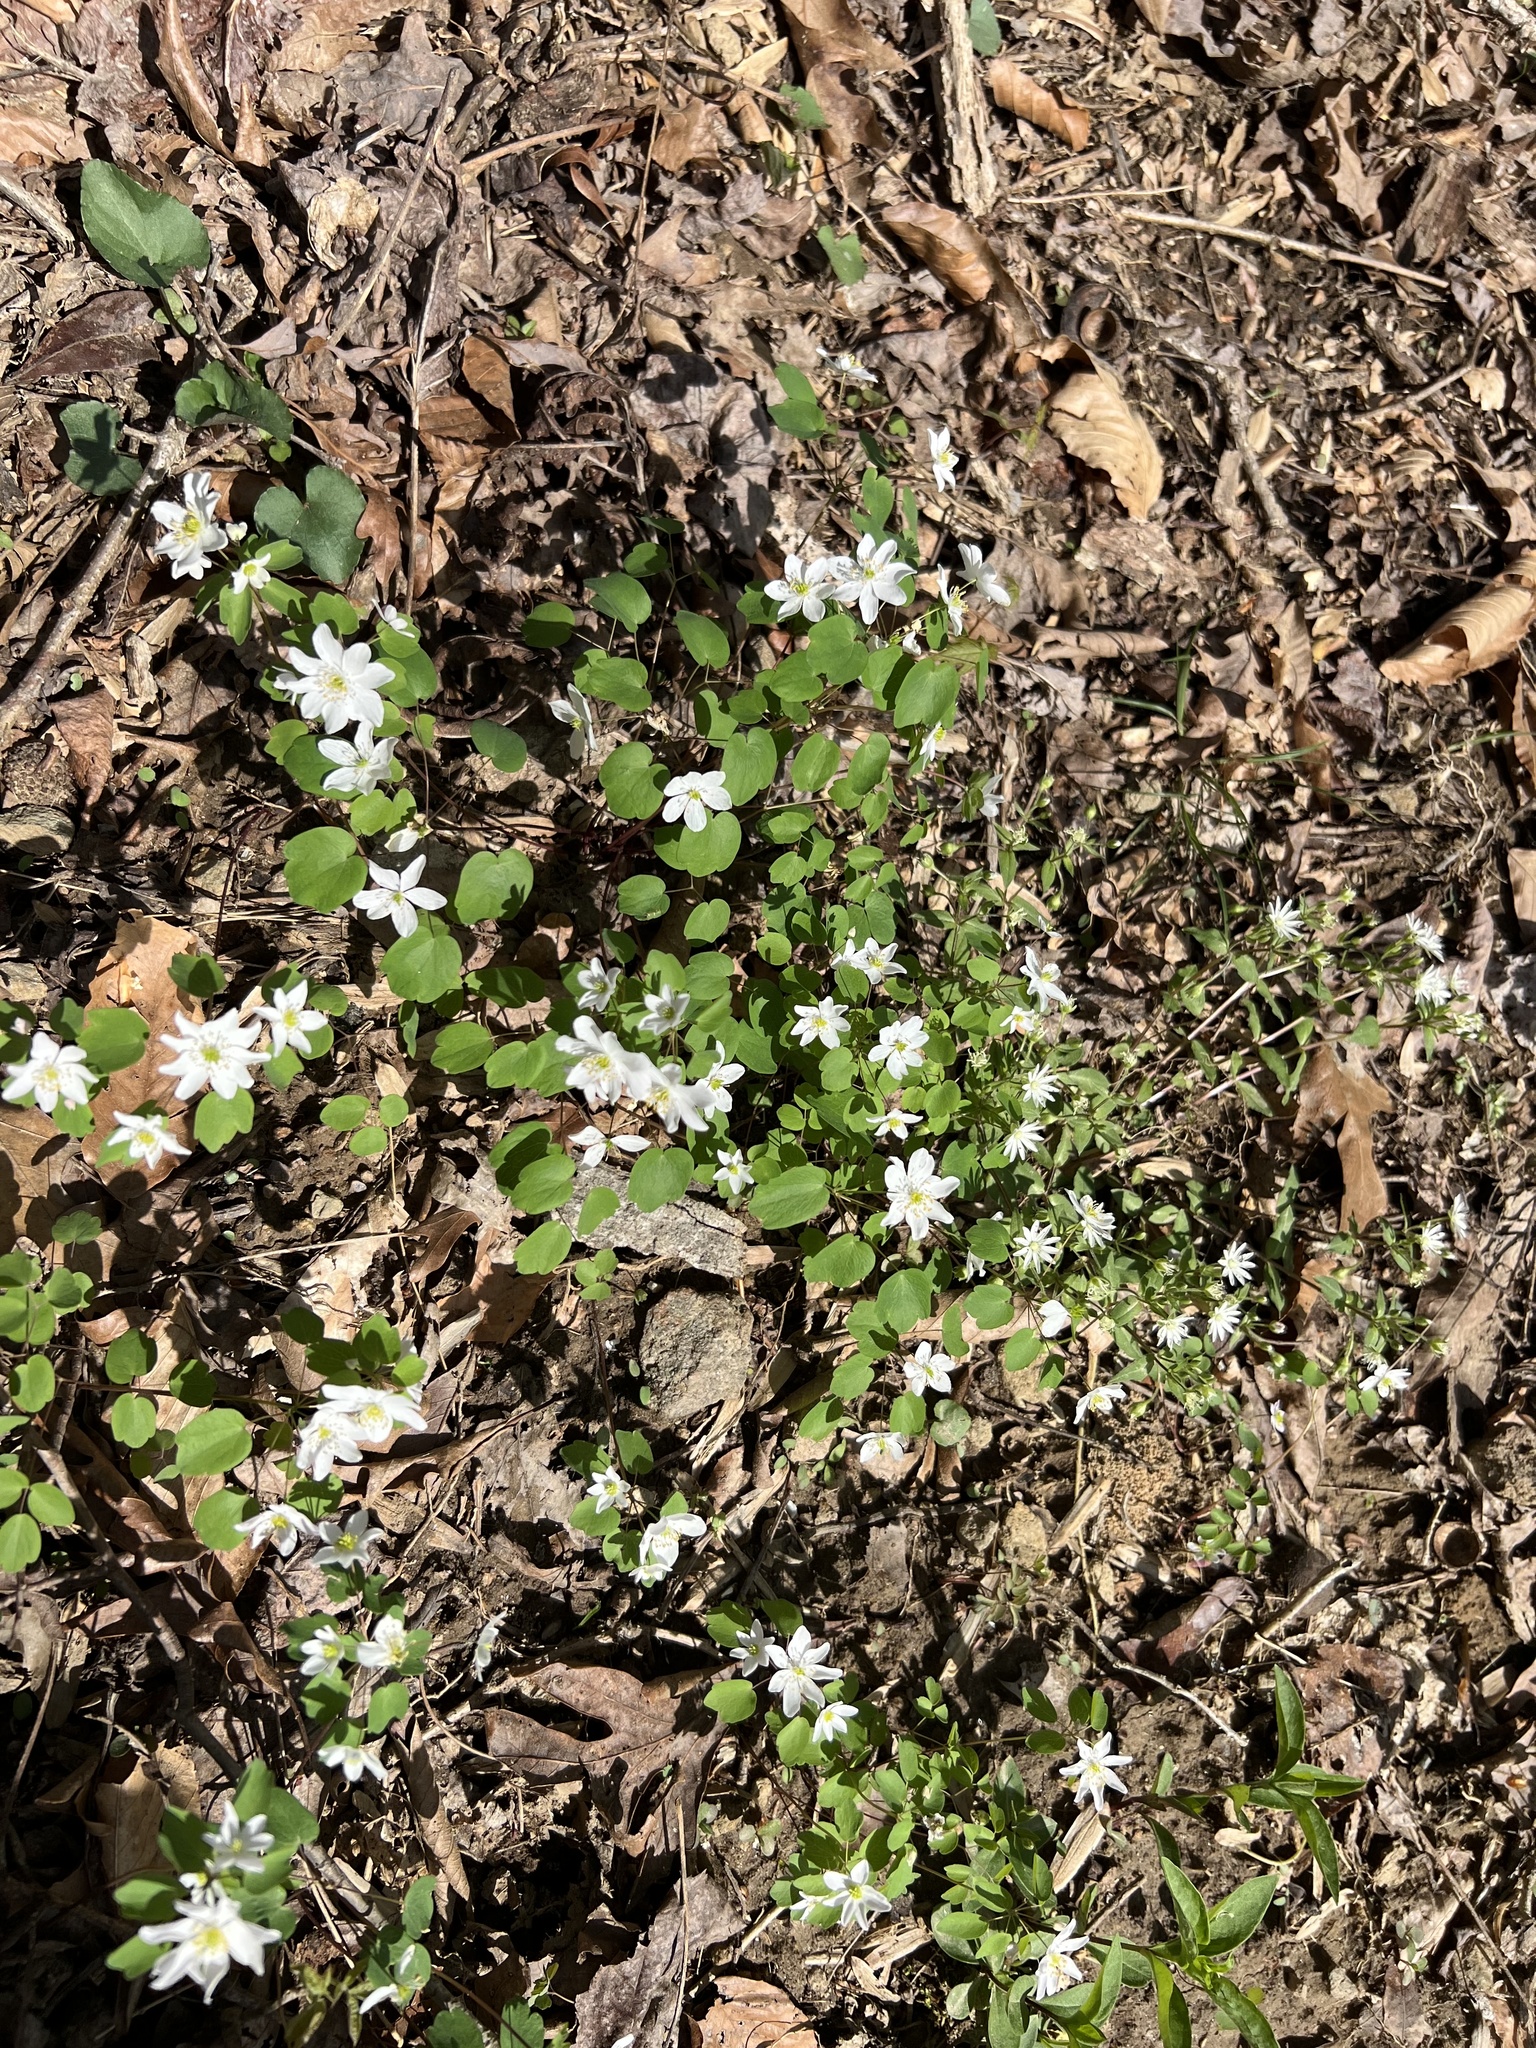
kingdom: Plantae
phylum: Tracheophyta
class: Magnoliopsida
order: Ranunculales
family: Ranunculaceae
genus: Thalictrum
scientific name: Thalictrum thalictroides
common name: Rue-anemone
